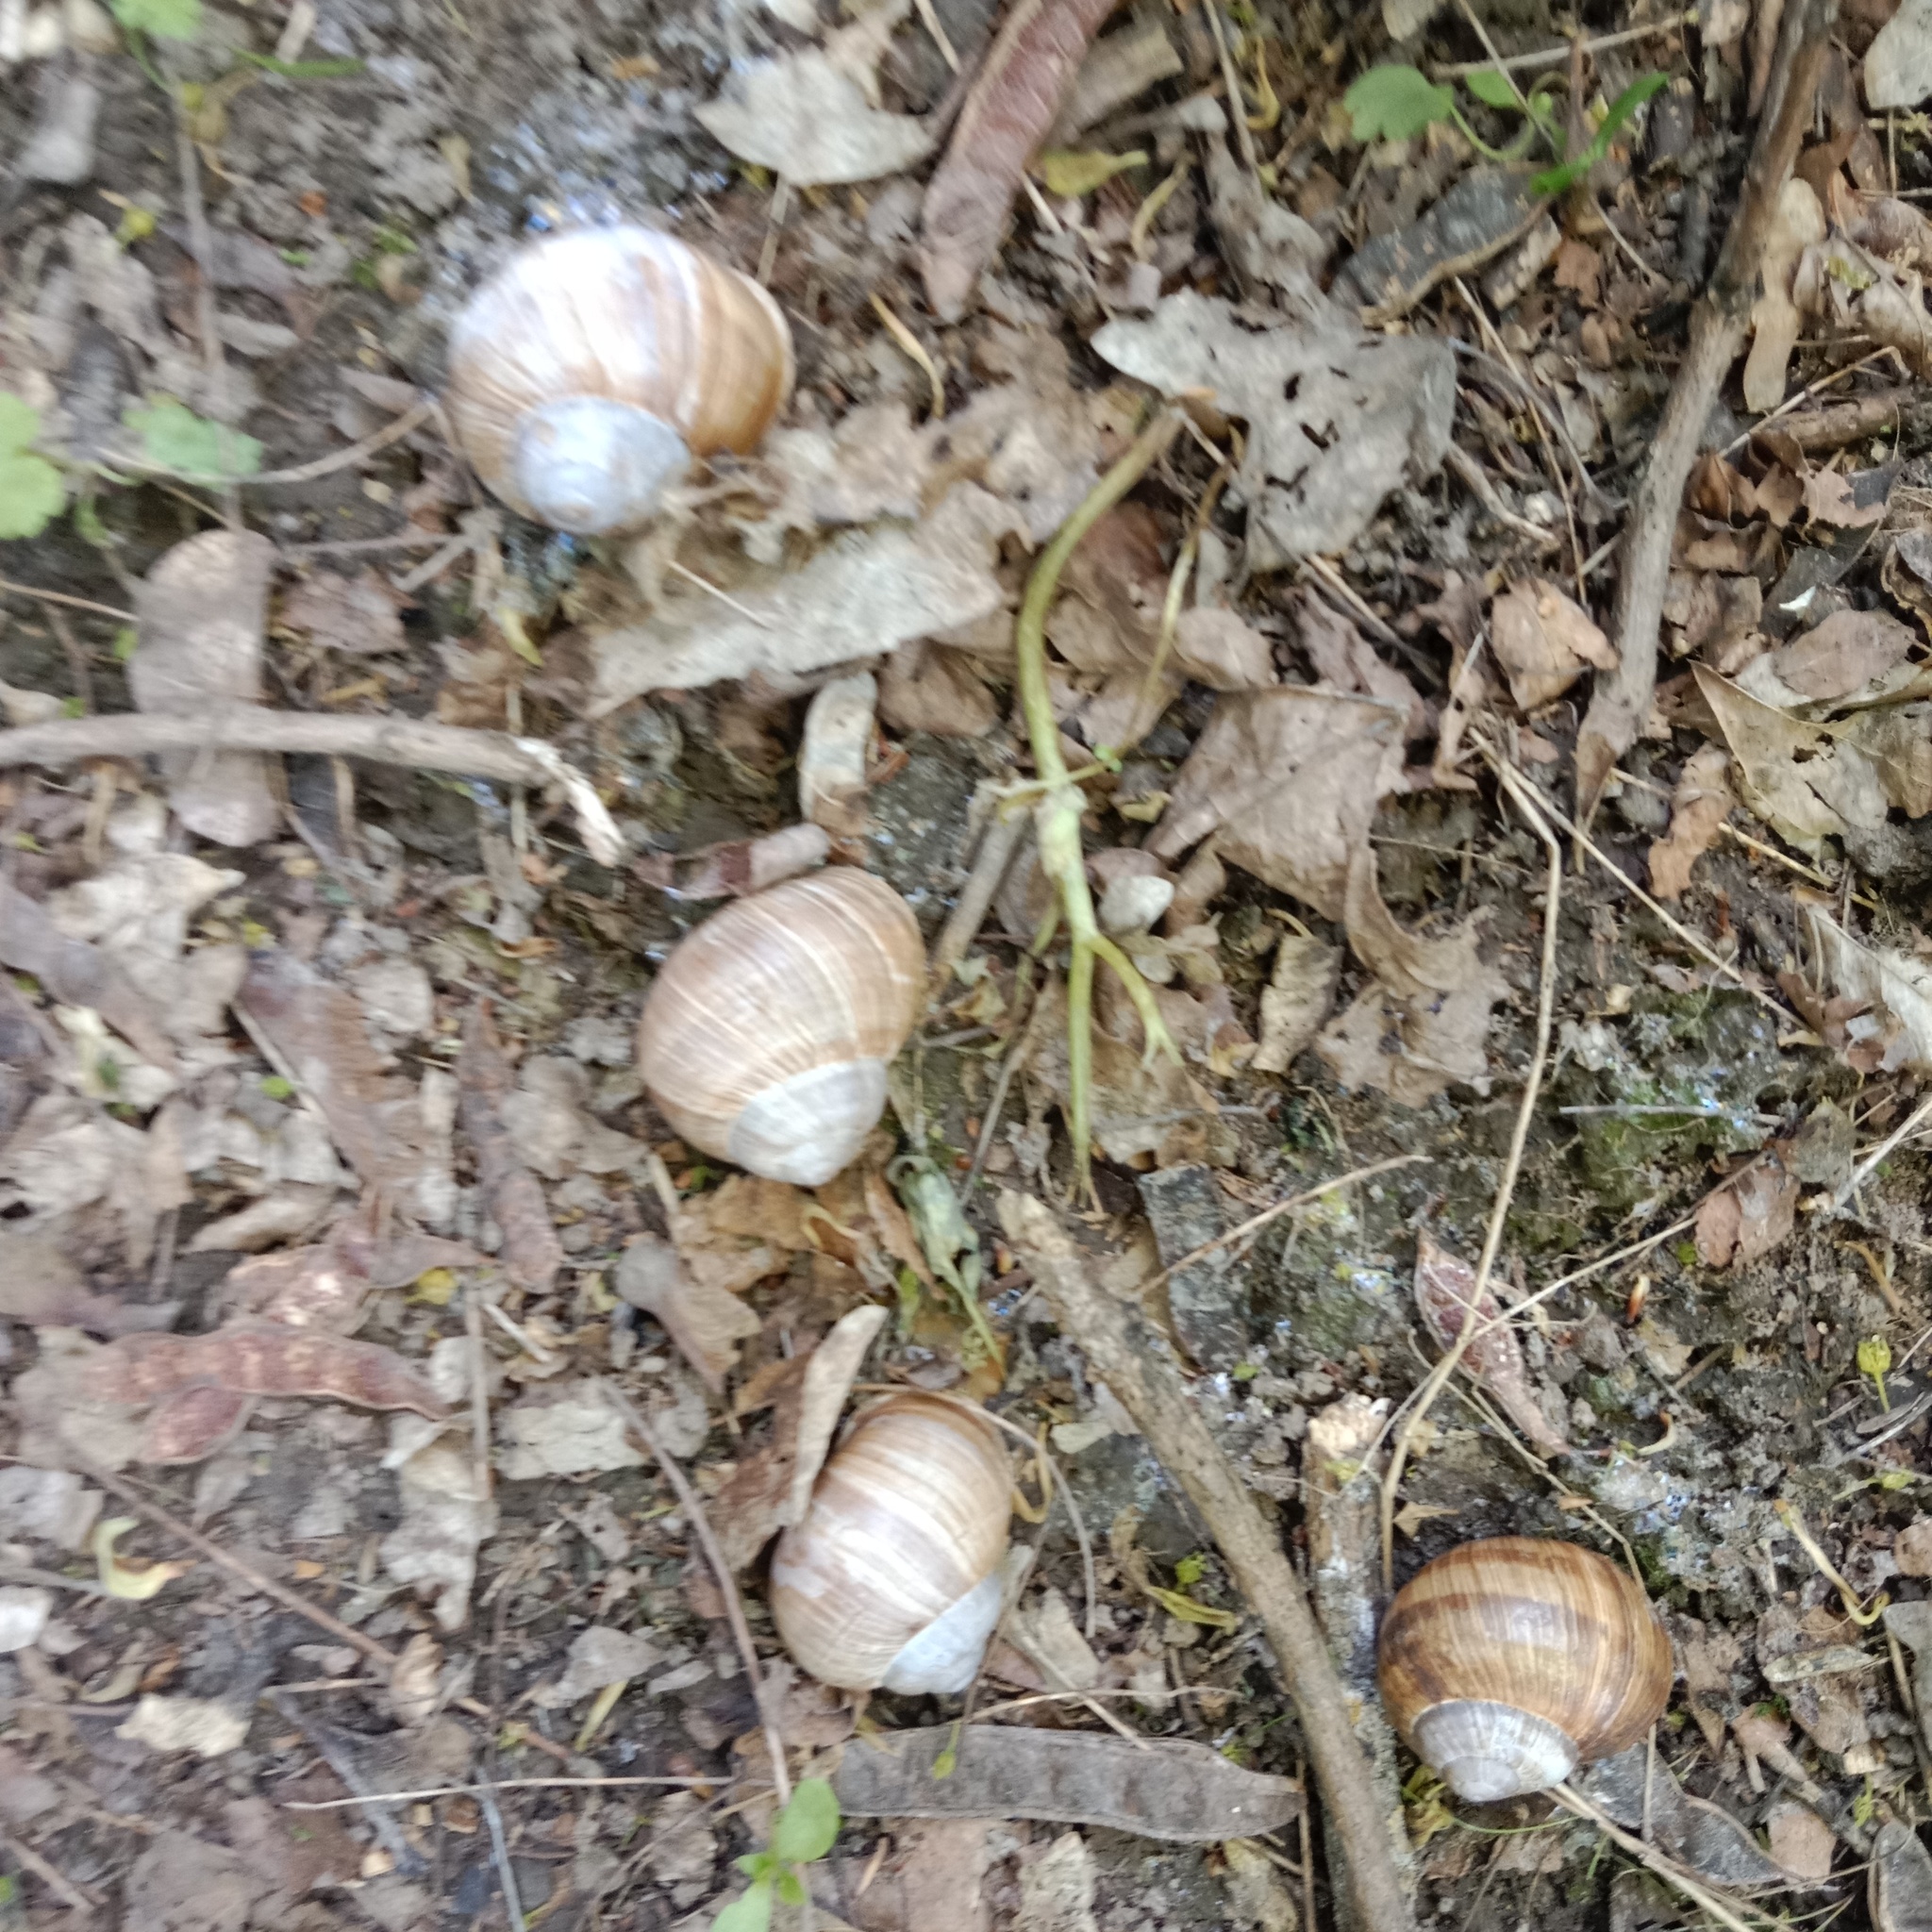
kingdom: Animalia
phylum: Mollusca
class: Gastropoda
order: Stylommatophora
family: Helicidae
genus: Helix
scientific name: Helix pomatia
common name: Roman snail
